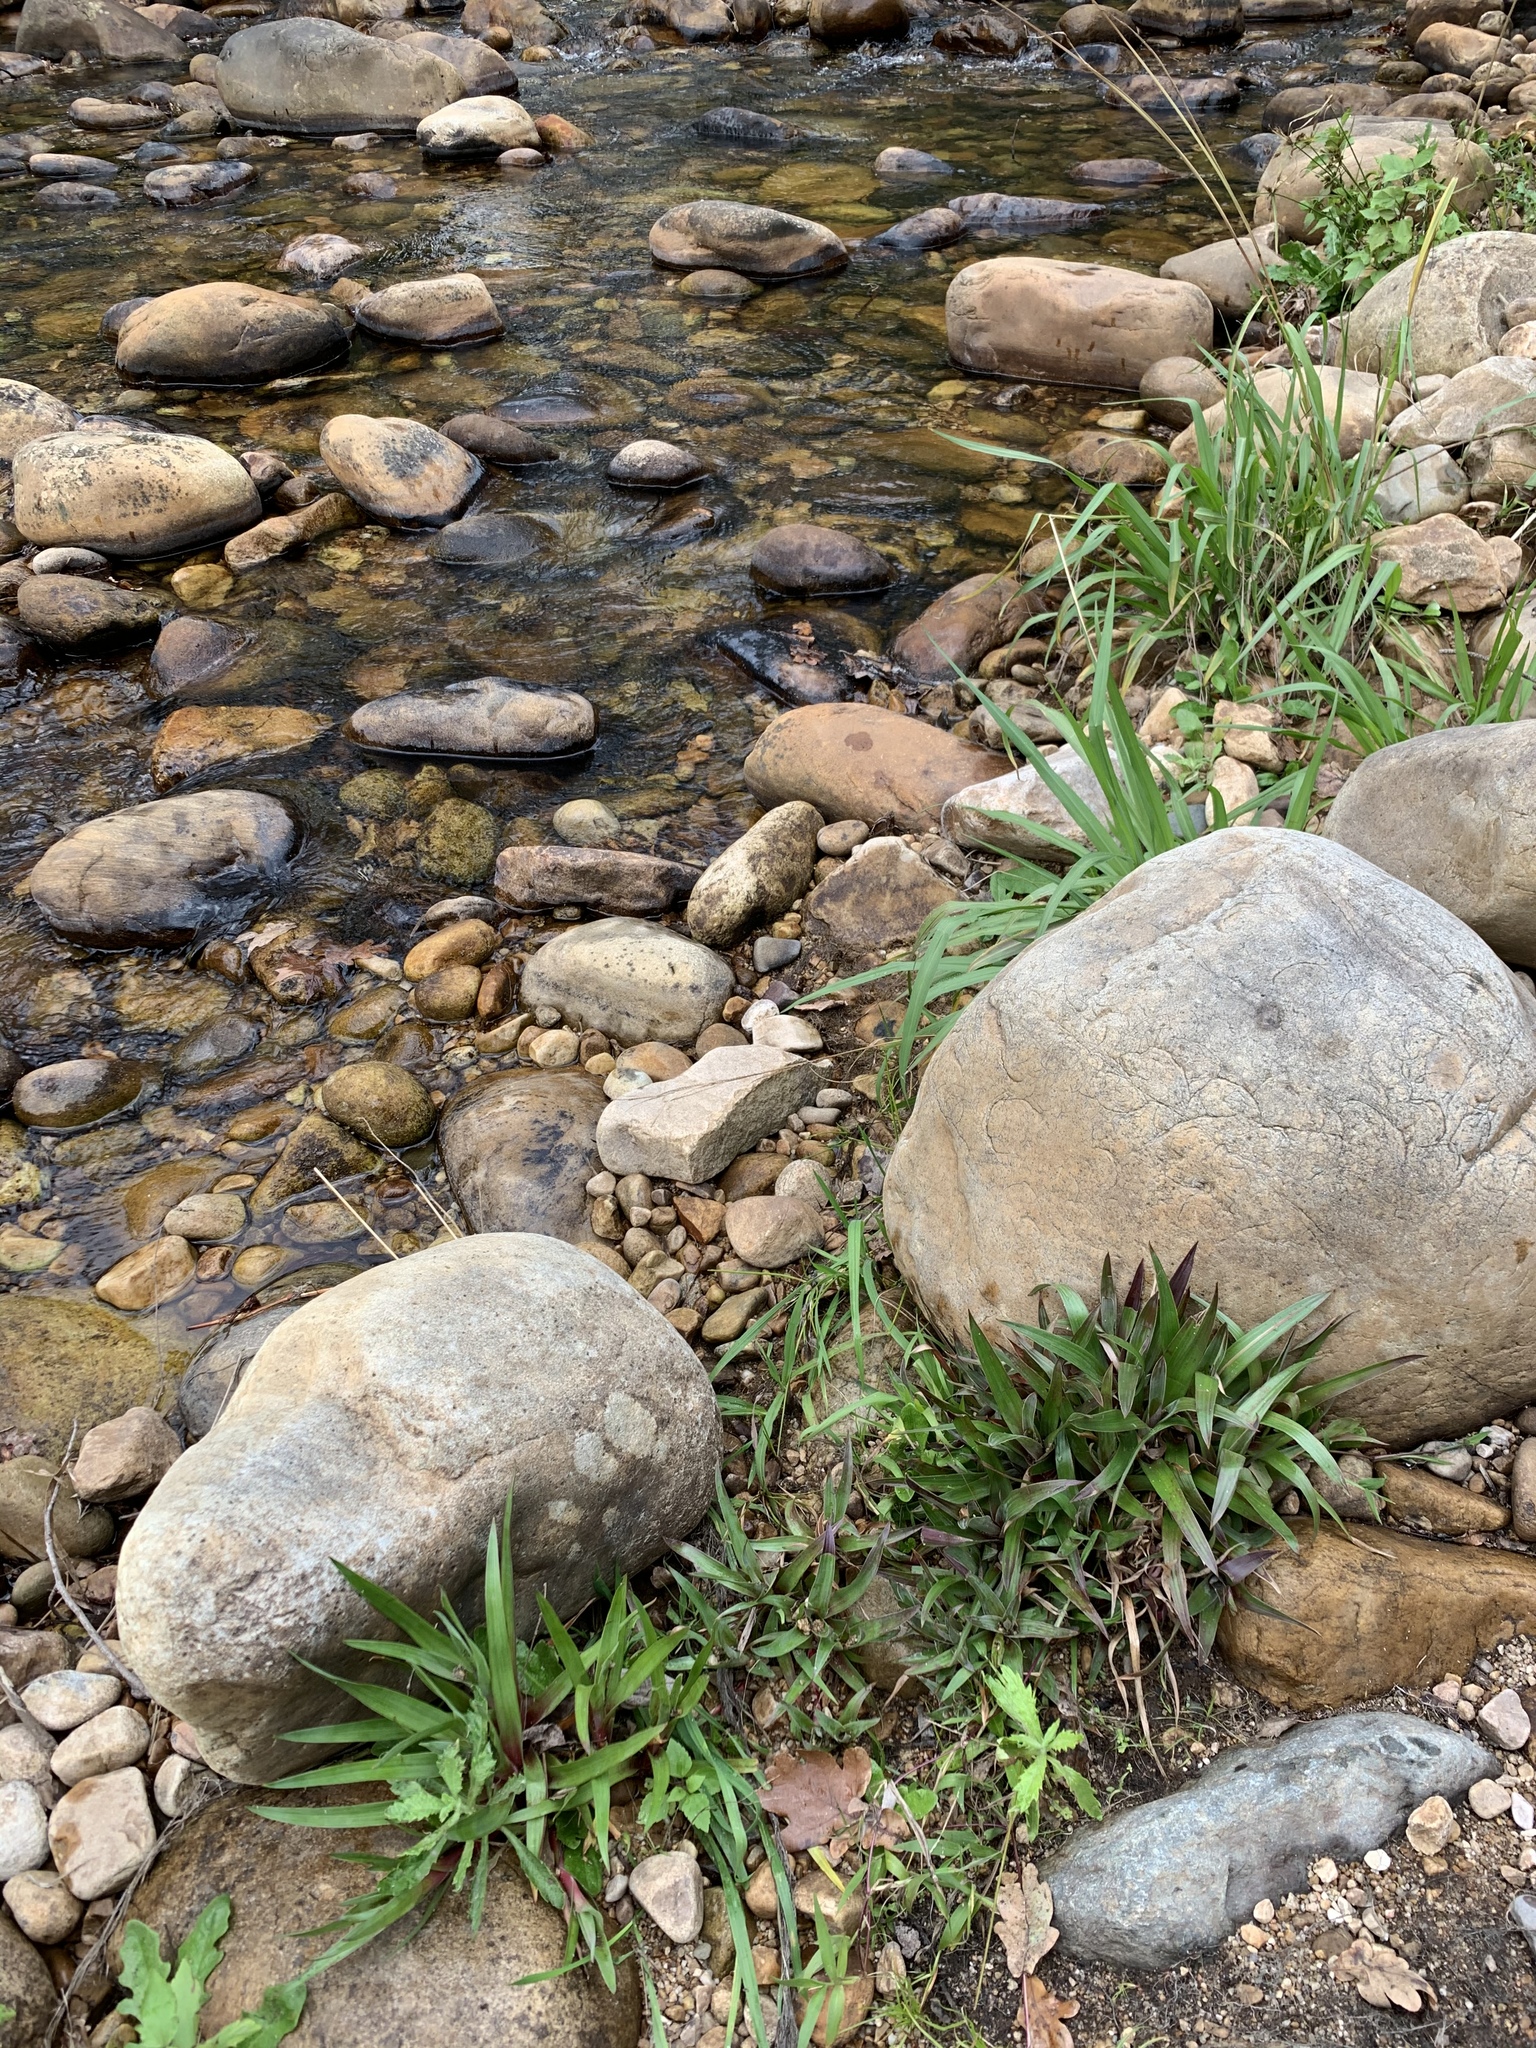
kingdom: Plantae
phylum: Tracheophyta
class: Liliopsida
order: Poales
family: Juncaceae
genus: Juncus
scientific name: Juncus lomatophyllus
